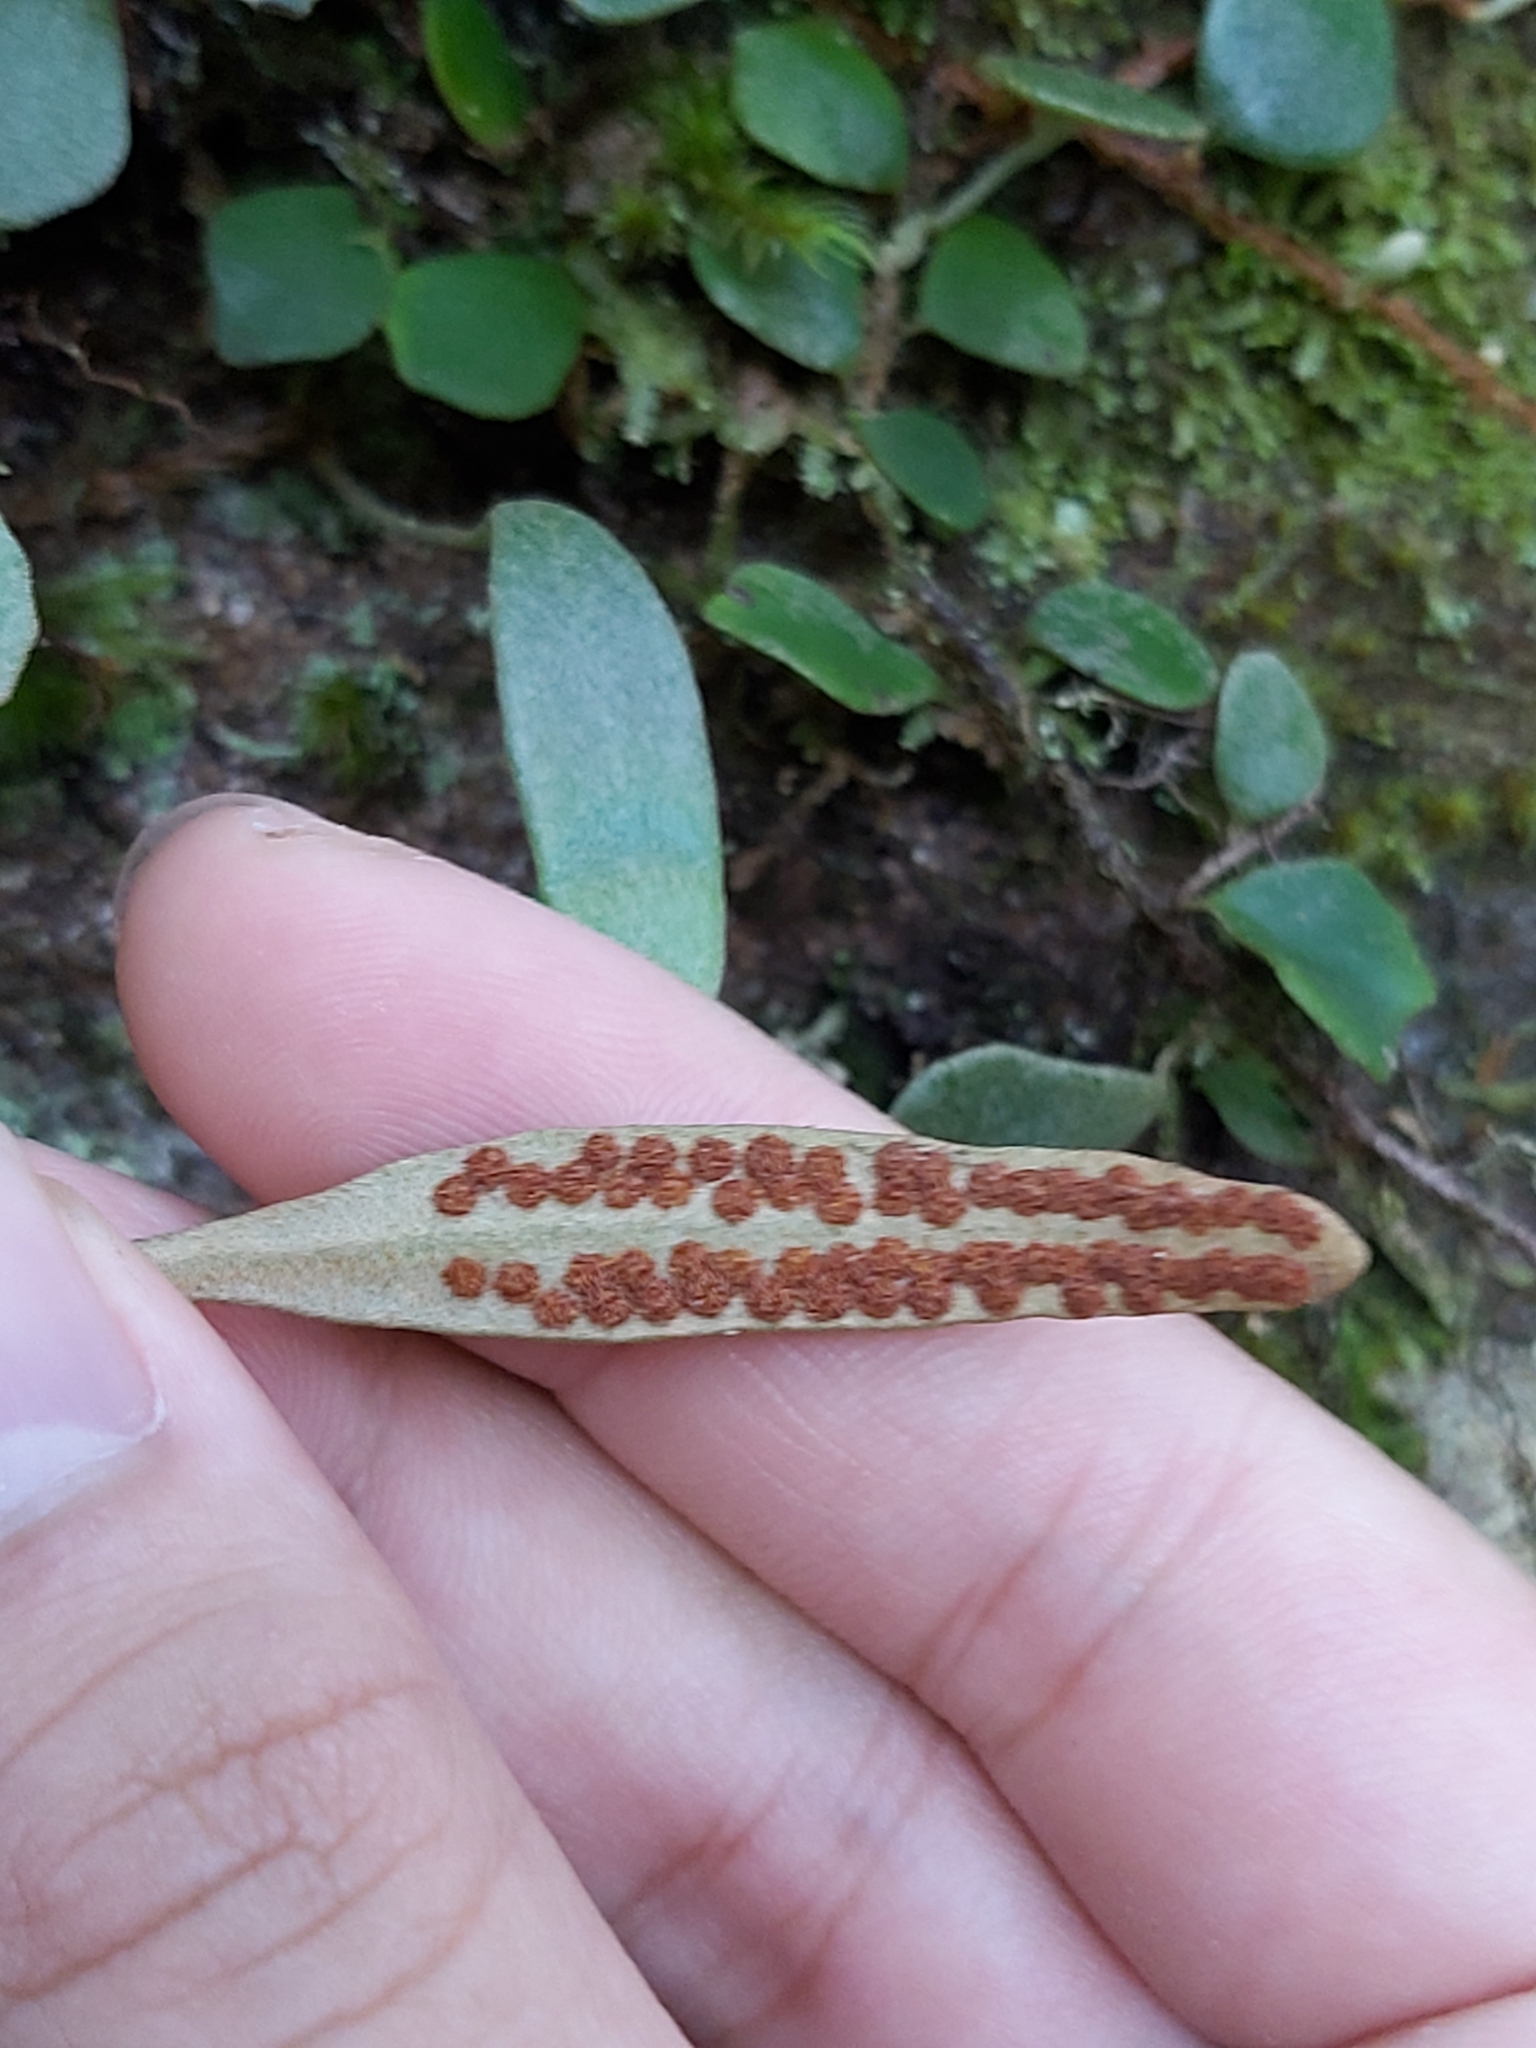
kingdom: Plantae
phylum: Tracheophyta
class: Polypodiopsida
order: Polypodiales
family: Polypodiaceae
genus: Pyrrosia
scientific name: Pyrrosia rupestris
